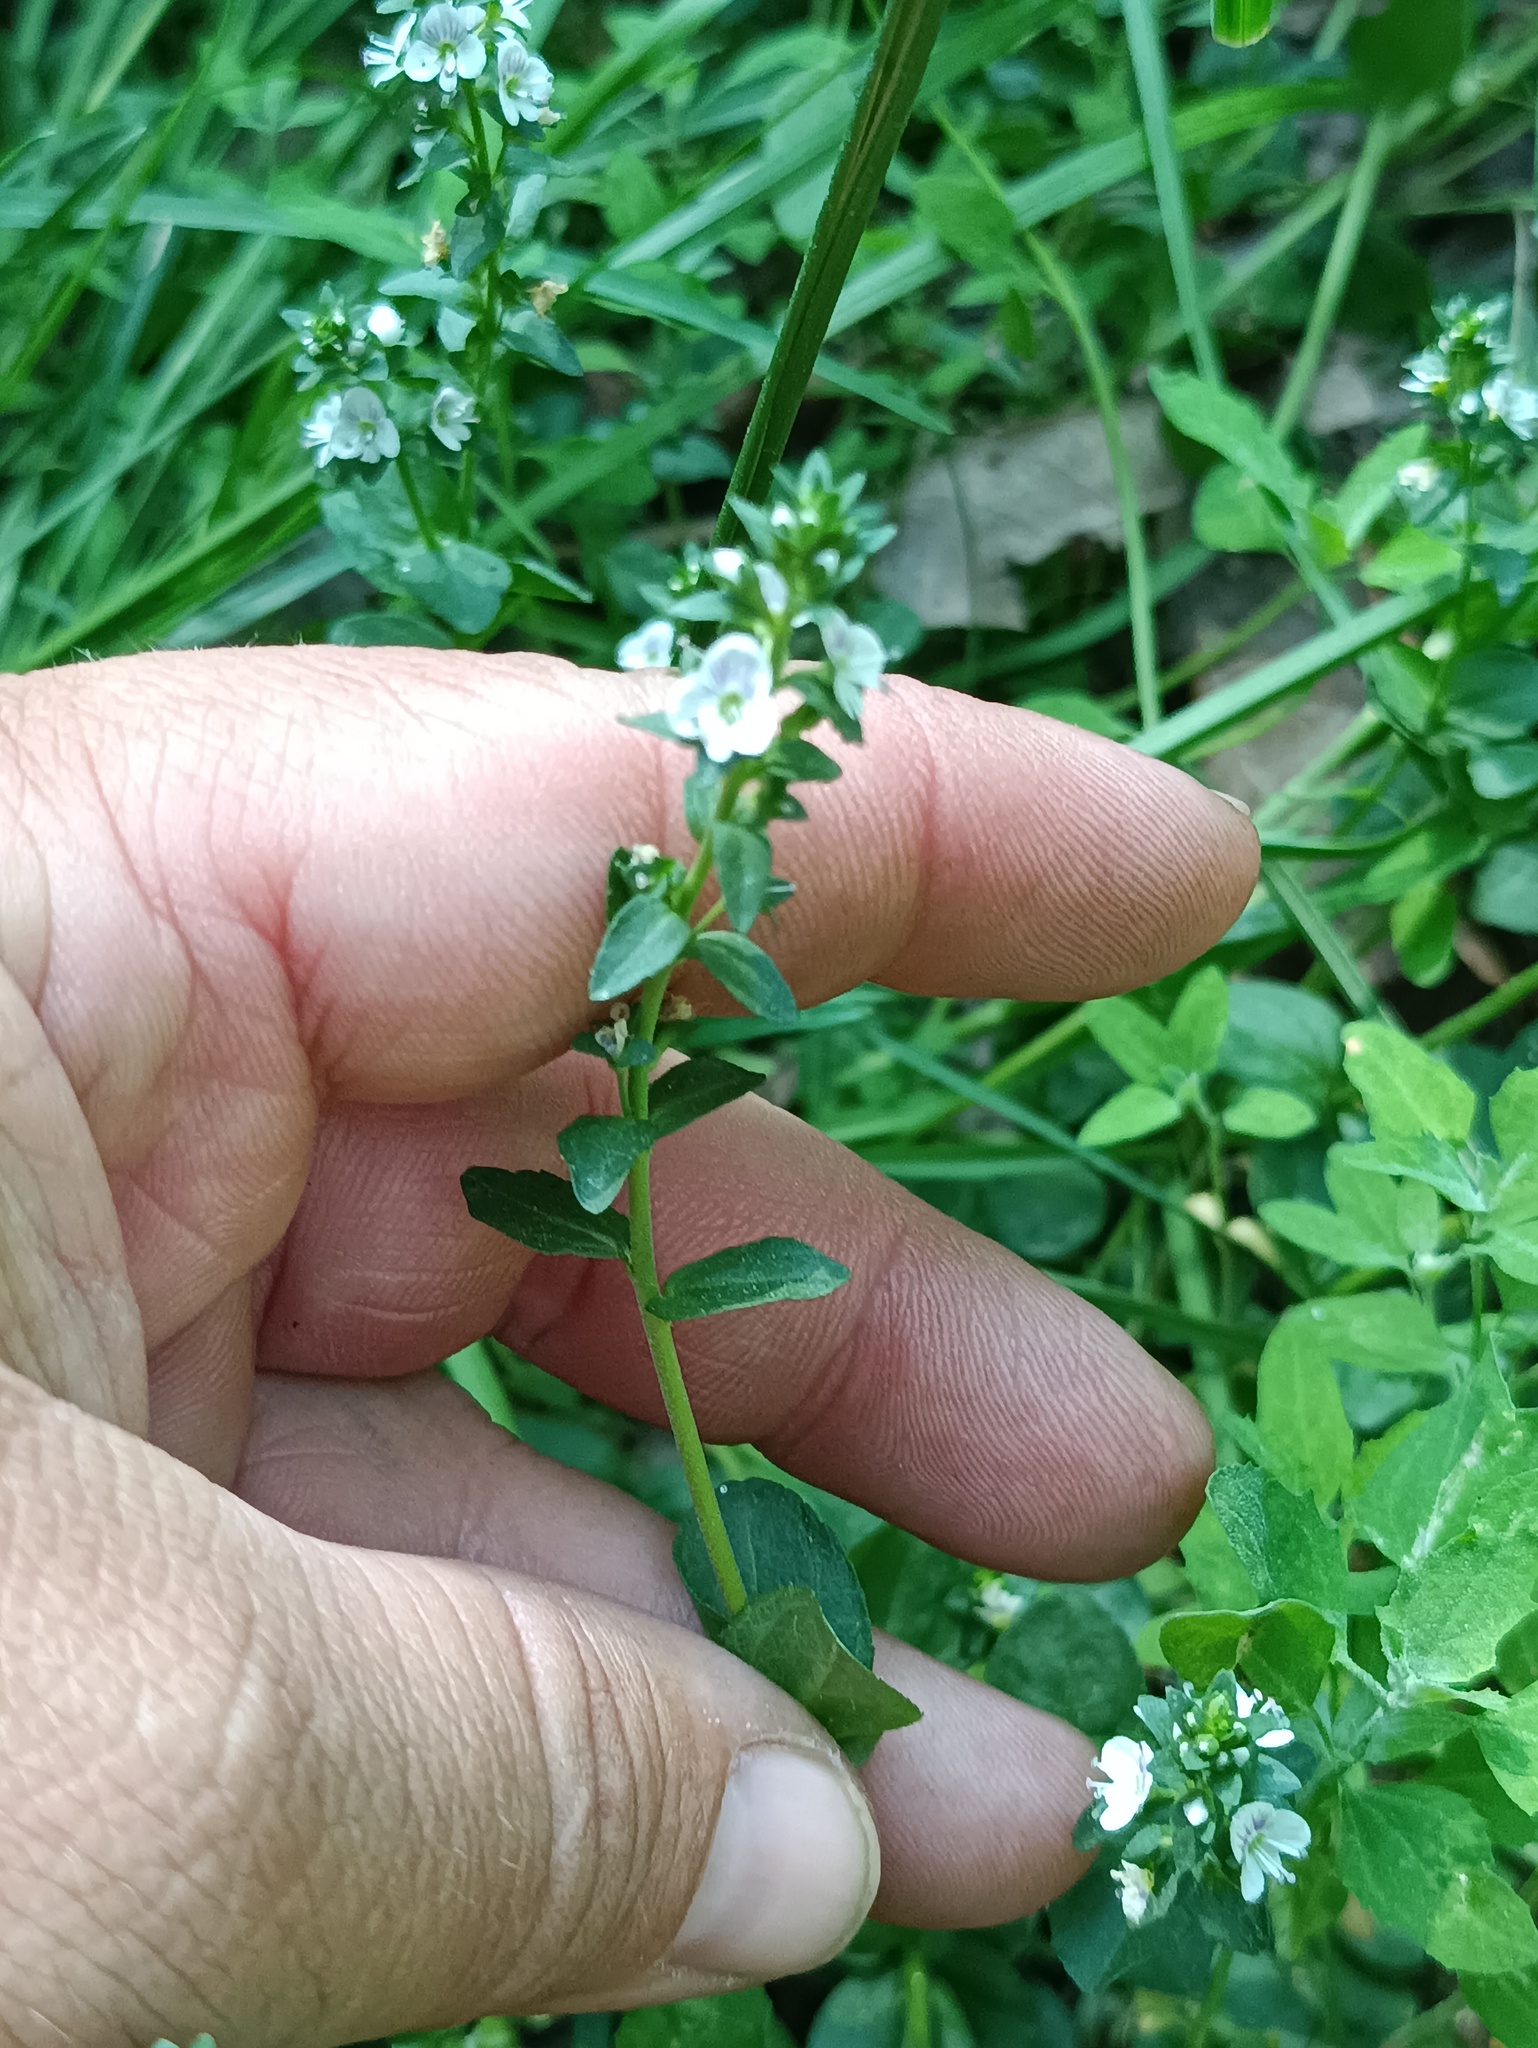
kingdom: Plantae
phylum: Tracheophyta
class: Magnoliopsida
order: Lamiales
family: Plantaginaceae
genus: Veronica
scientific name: Veronica serpyllifolia
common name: Thyme-leaved speedwell
